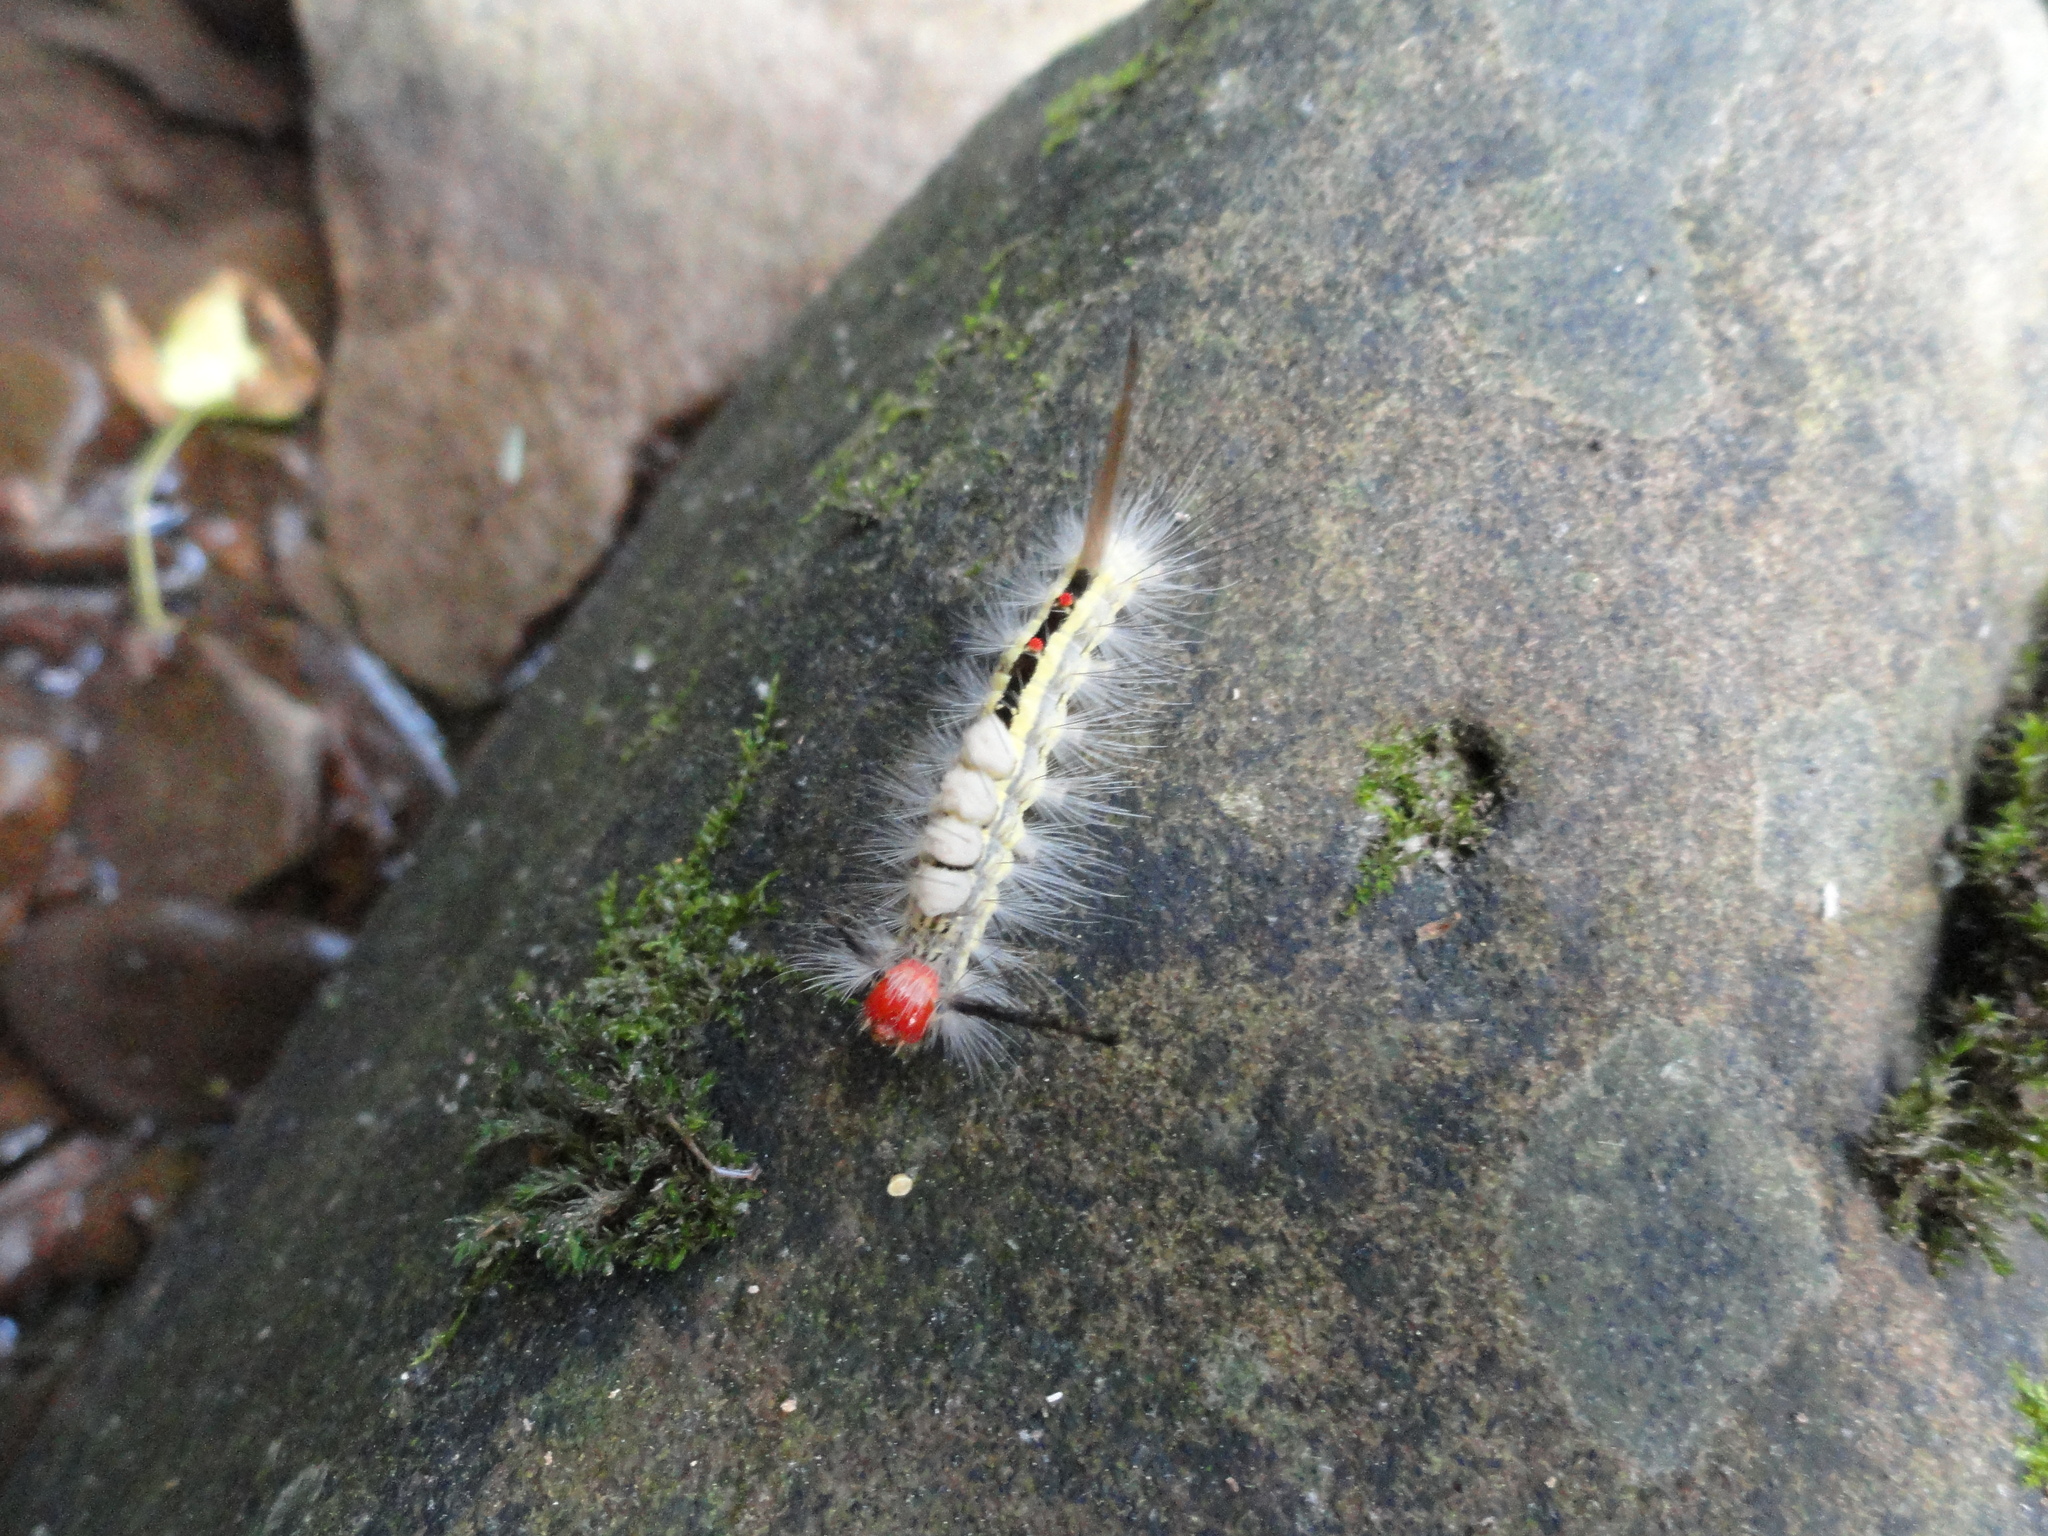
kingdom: Animalia
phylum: Arthropoda
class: Insecta
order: Lepidoptera
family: Erebidae
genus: Orgyia
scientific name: Orgyia leucostigma
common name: White-marked tussock moth
